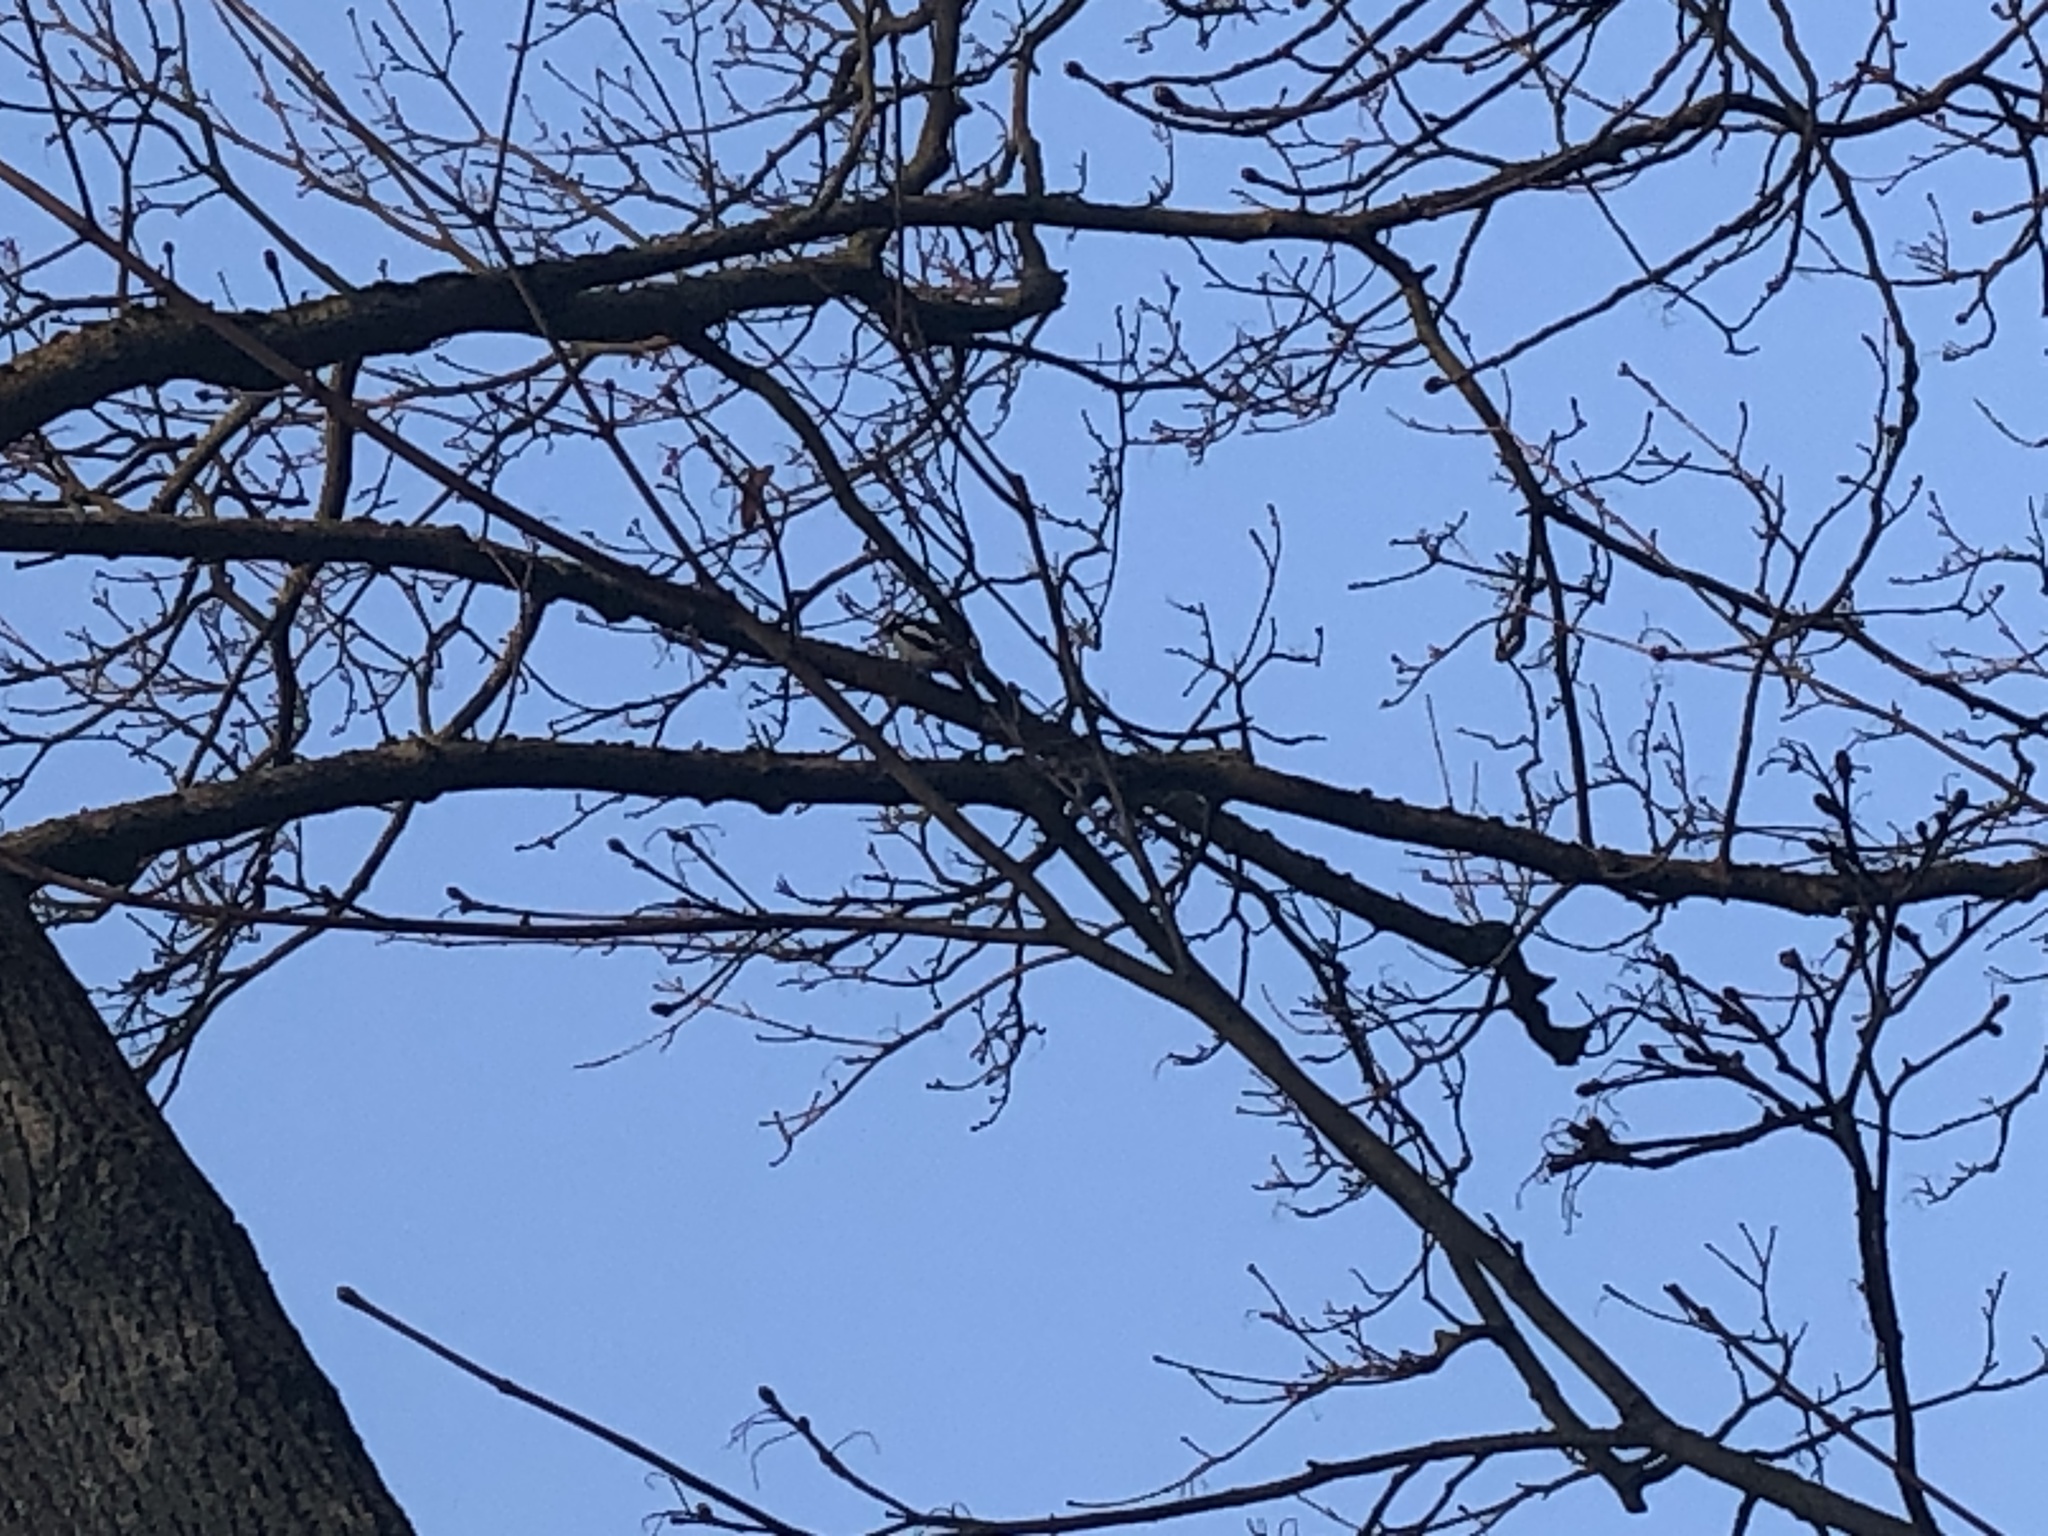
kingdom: Animalia
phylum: Chordata
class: Aves
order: Piciformes
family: Picidae
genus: Dendrocopos
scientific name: Dendrocopos major
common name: Great spotted woodpecker
